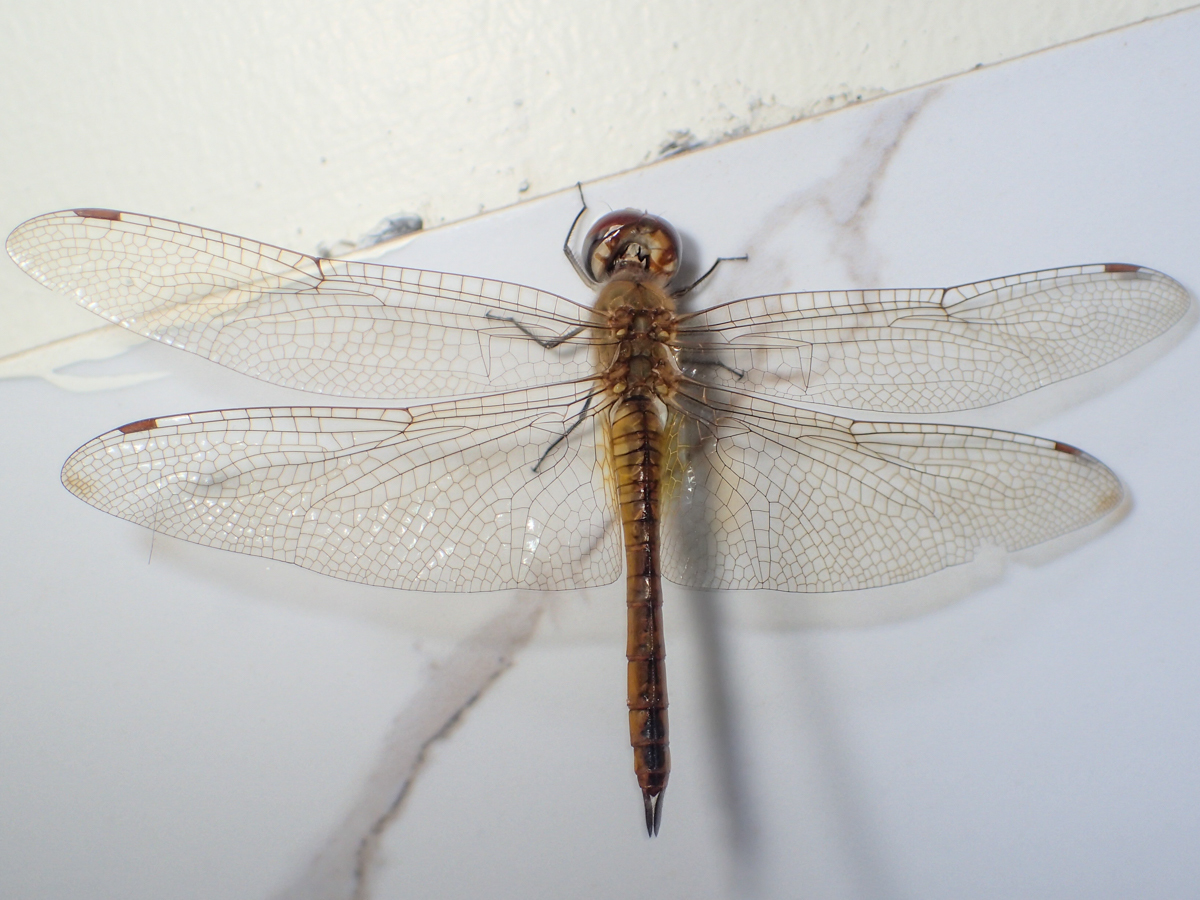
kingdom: Animalia
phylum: Arthropoda
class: Insecta
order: Odonata
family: Libellulidae
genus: Pantala
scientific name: Pantala flavescens
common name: Wandering glider
